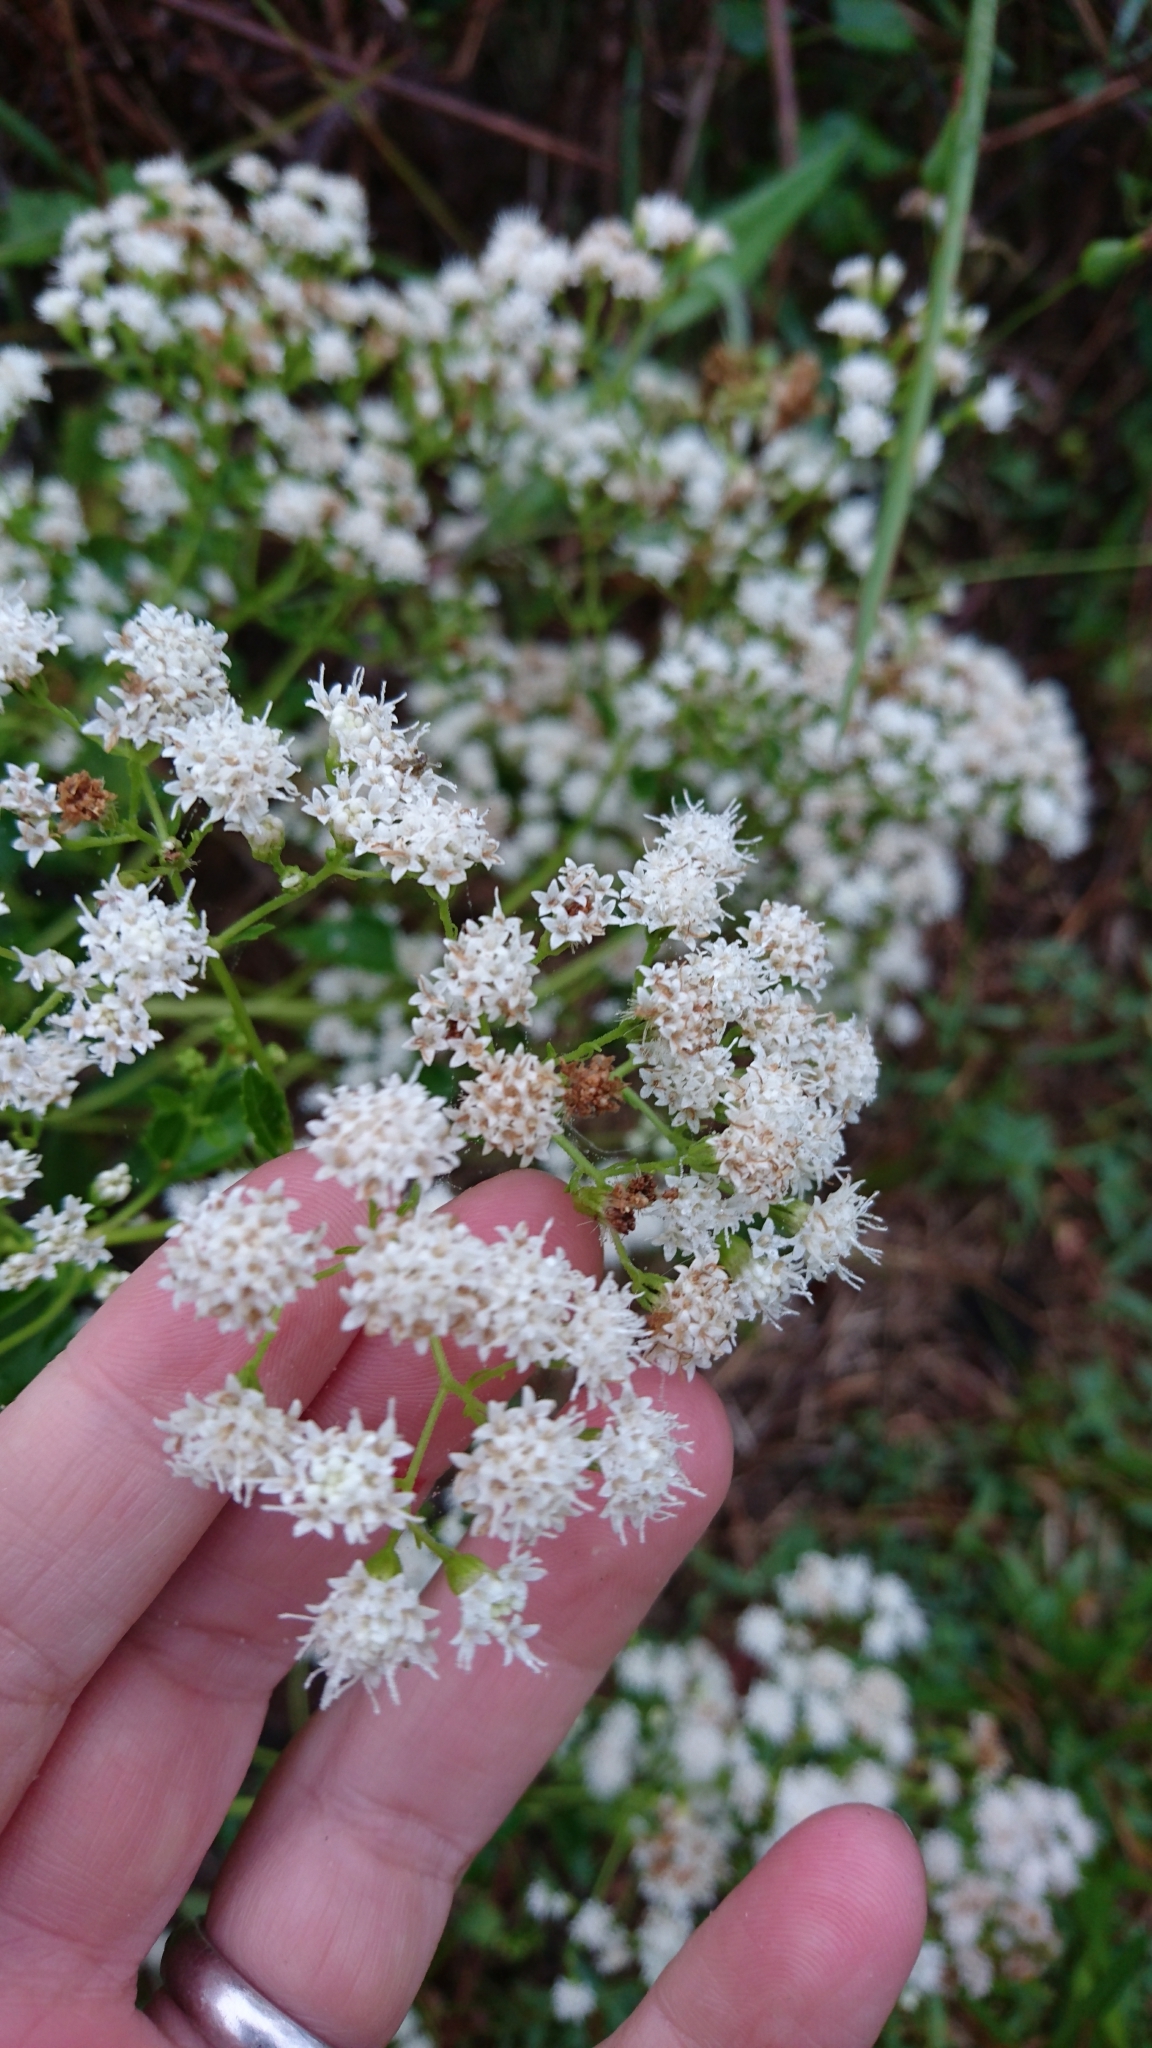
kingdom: Plantae
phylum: Tracheophyta
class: Magnoliopsida
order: Asterales
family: Asteraceae
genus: Ageratina
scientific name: Ageratina jucunda
